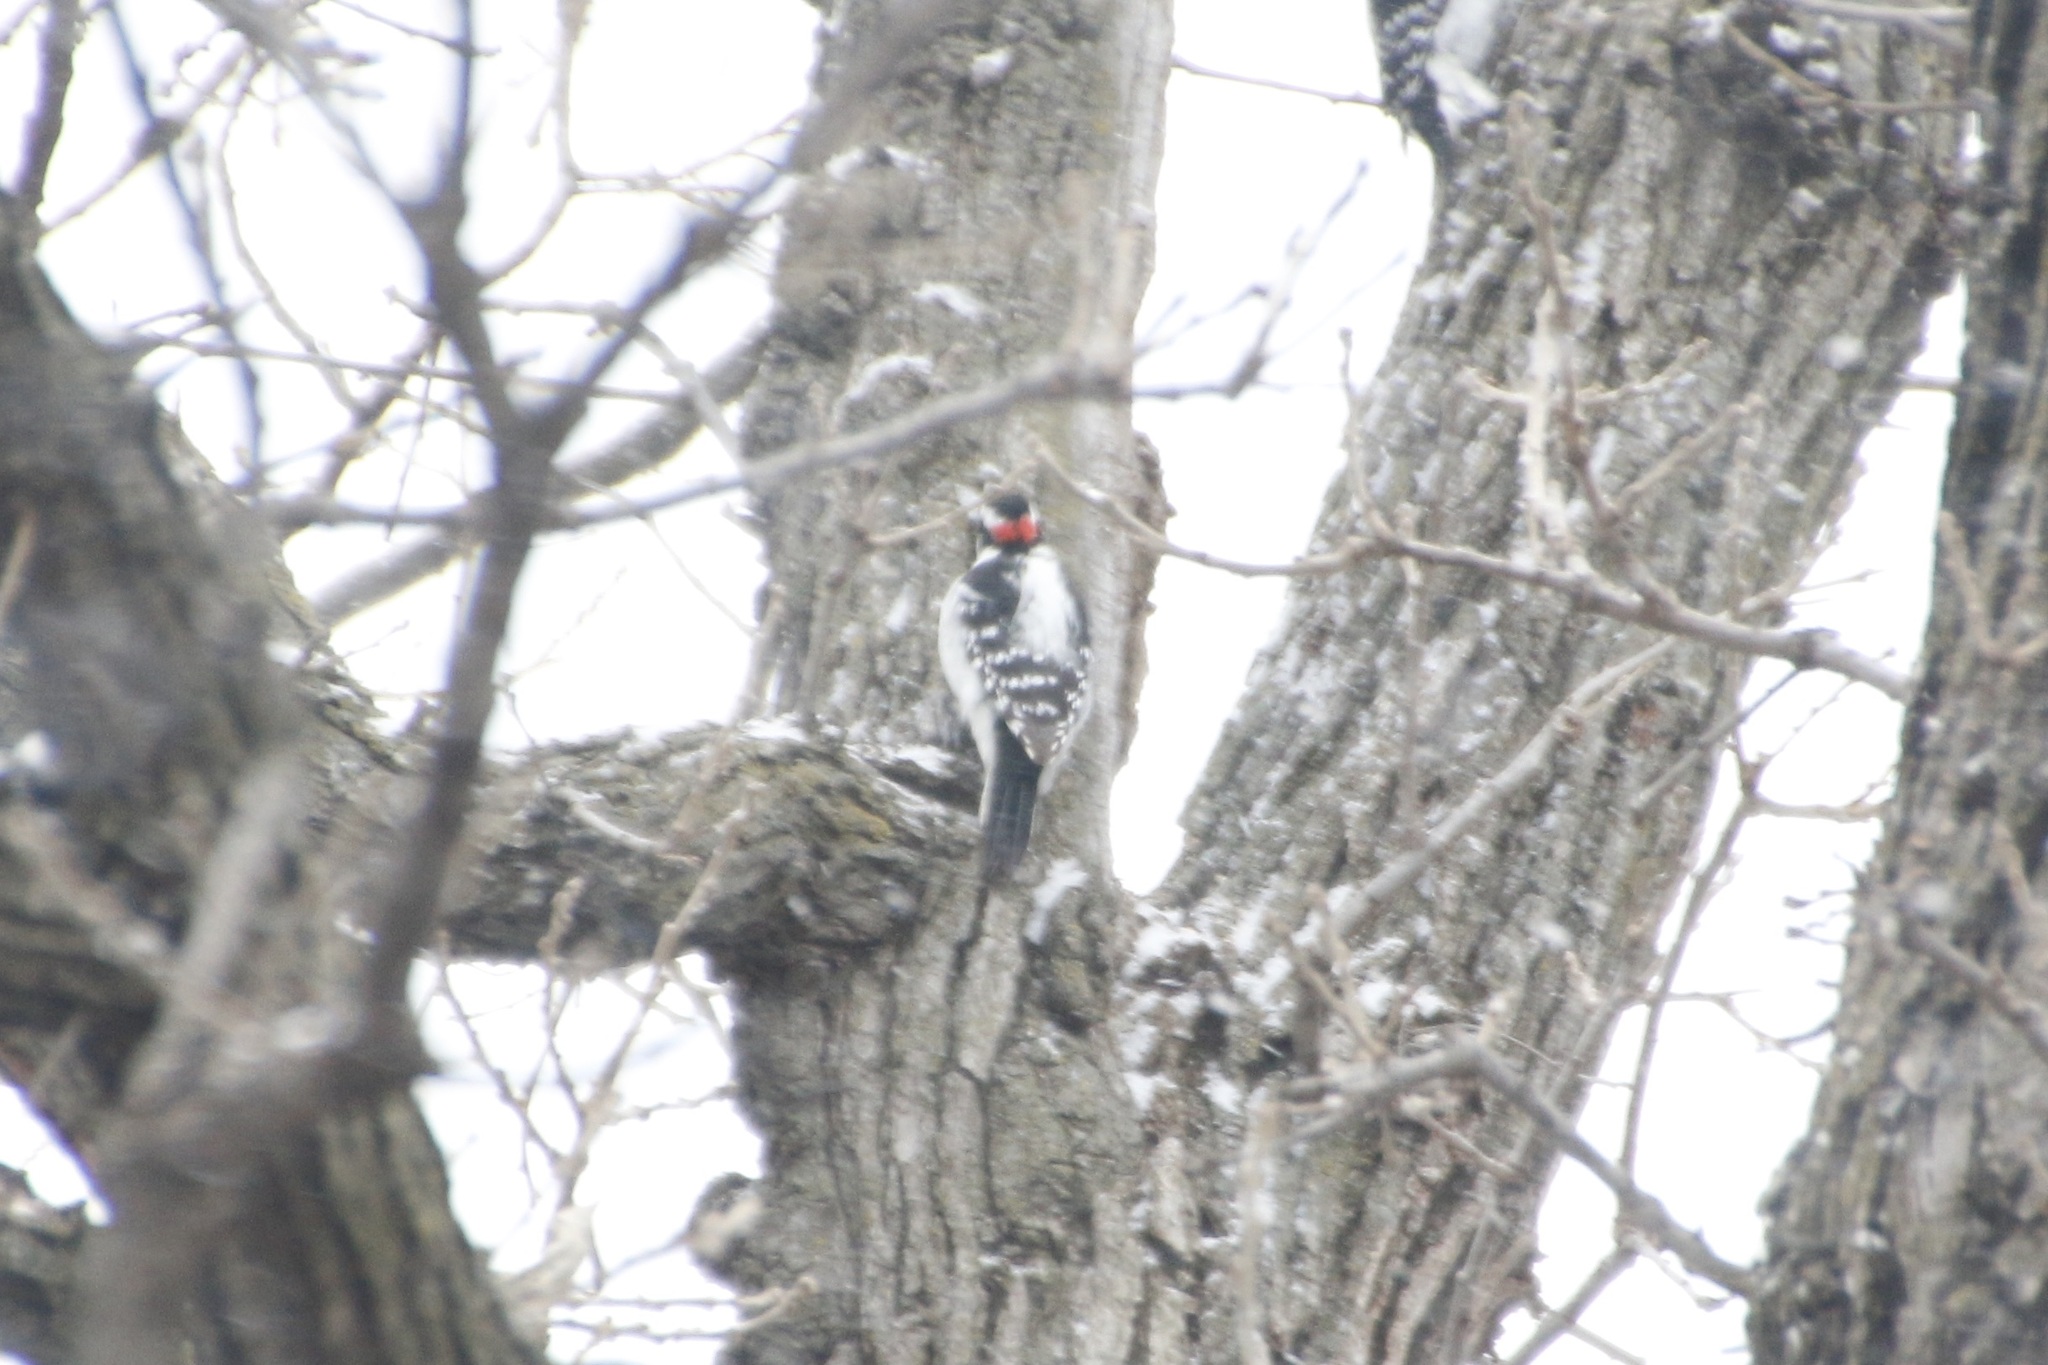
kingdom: Animalia
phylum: Chordata
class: Aves
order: Piciformes
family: Picidae
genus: Leuconotopicus
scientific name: Leuconotopicus villosus
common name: Hairy woodpecker
